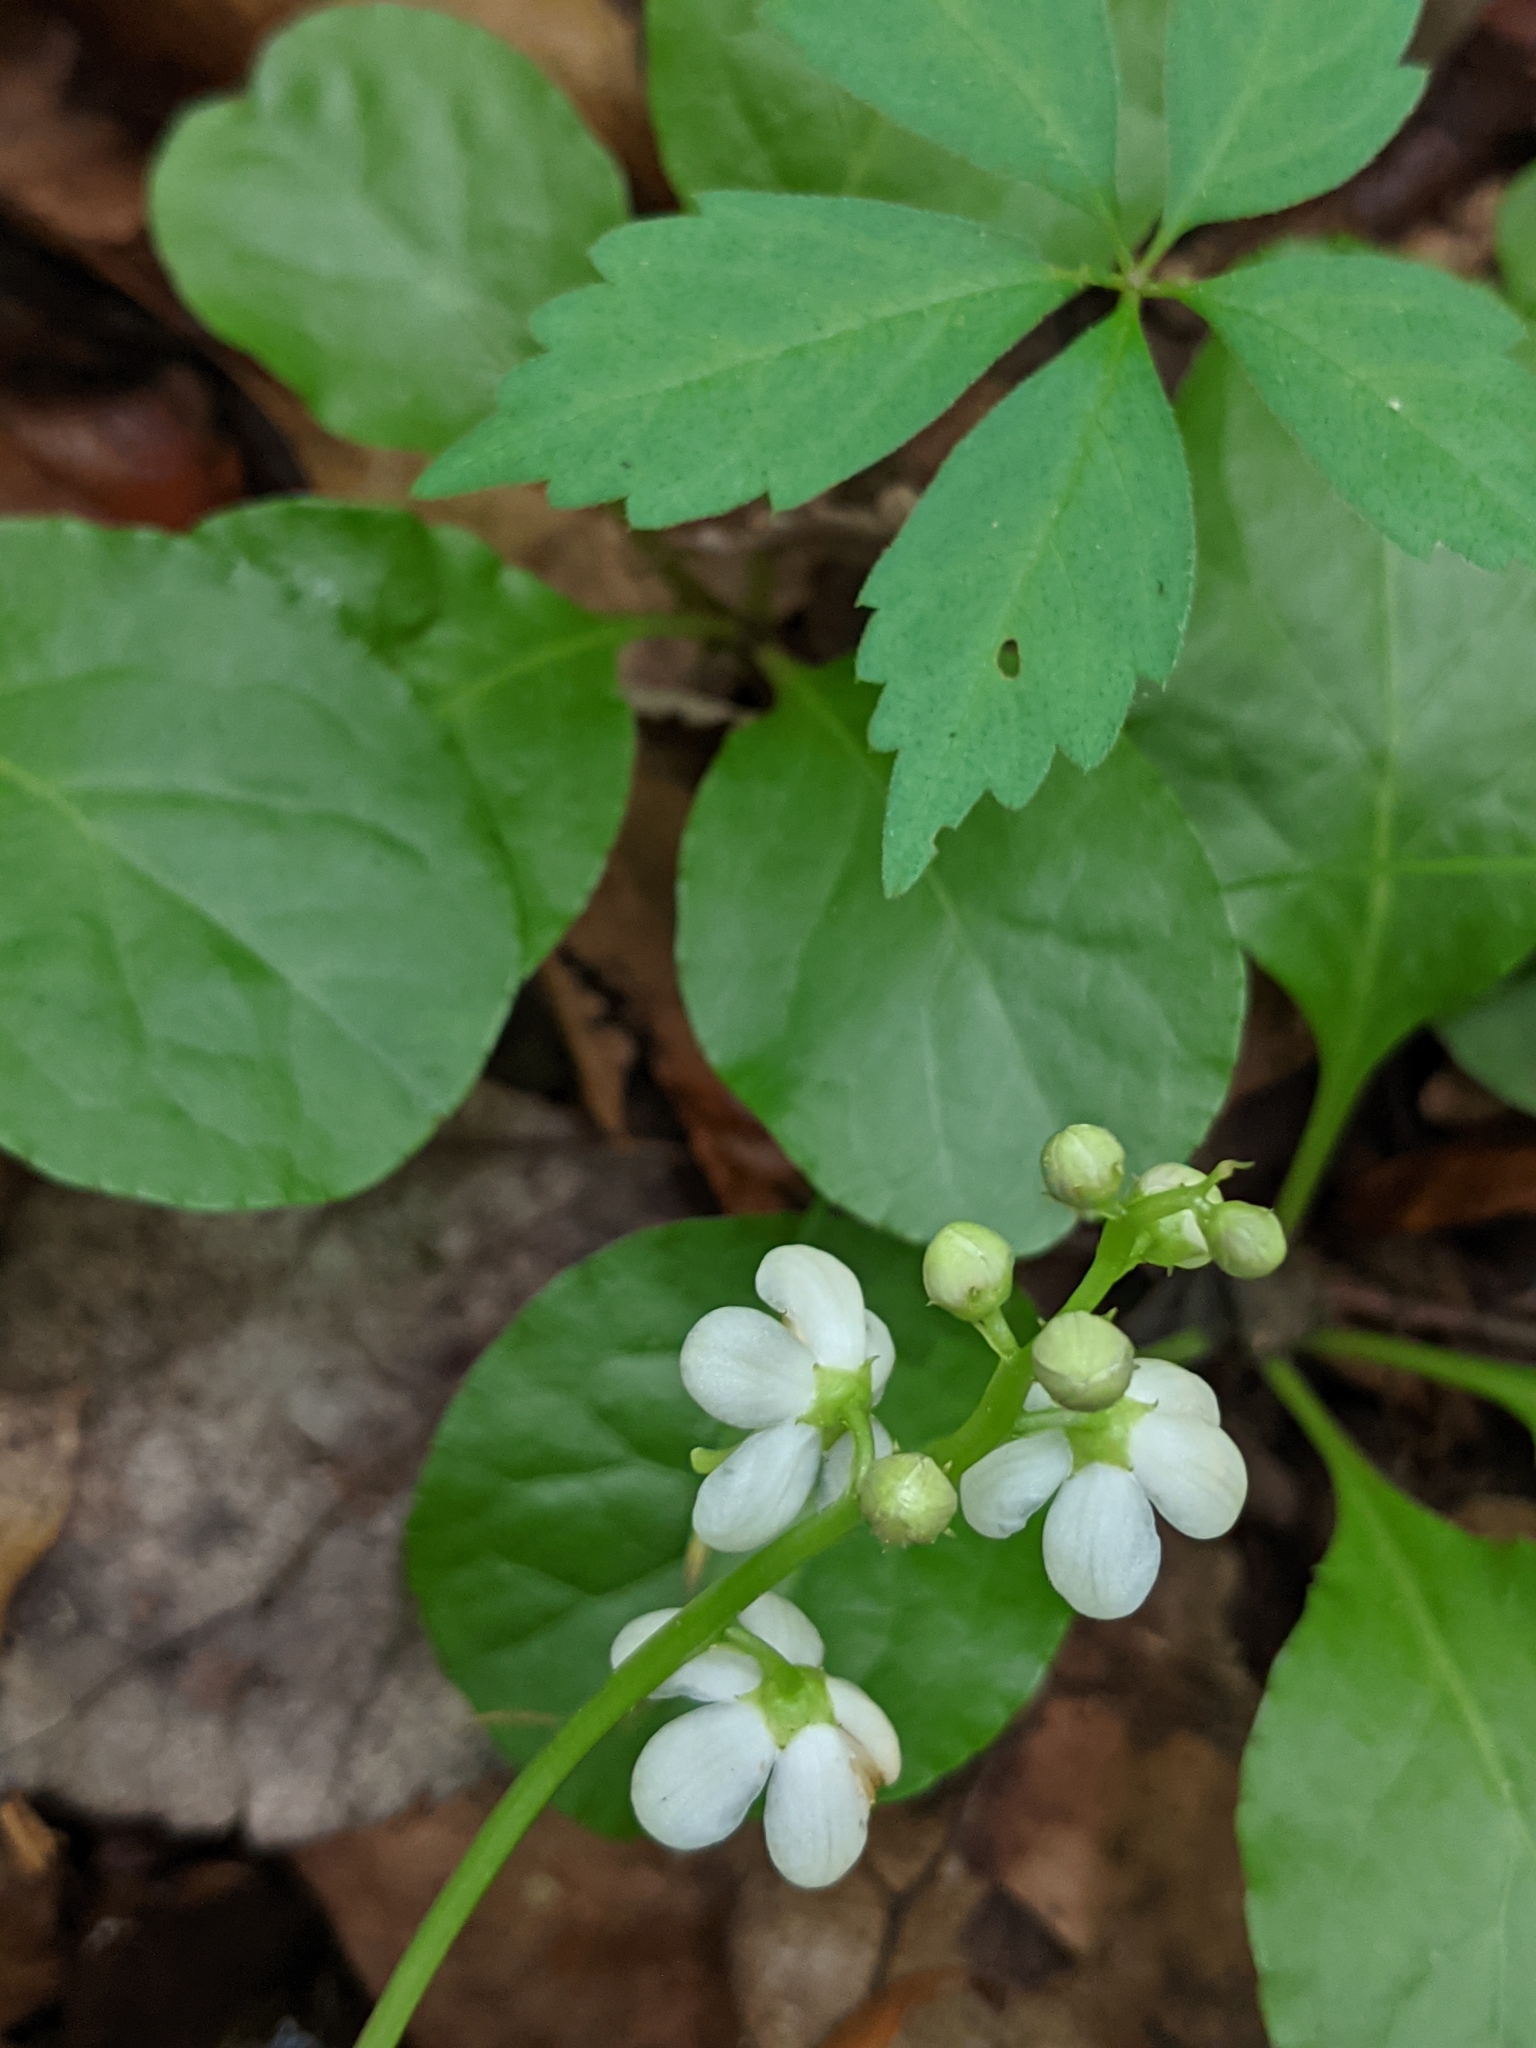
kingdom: Plantae
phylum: Tracheophyta
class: Magnoliopsida
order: Ericales
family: Ericaceae
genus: Pyrola
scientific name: Pyrola elliptica
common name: Shinleaf
